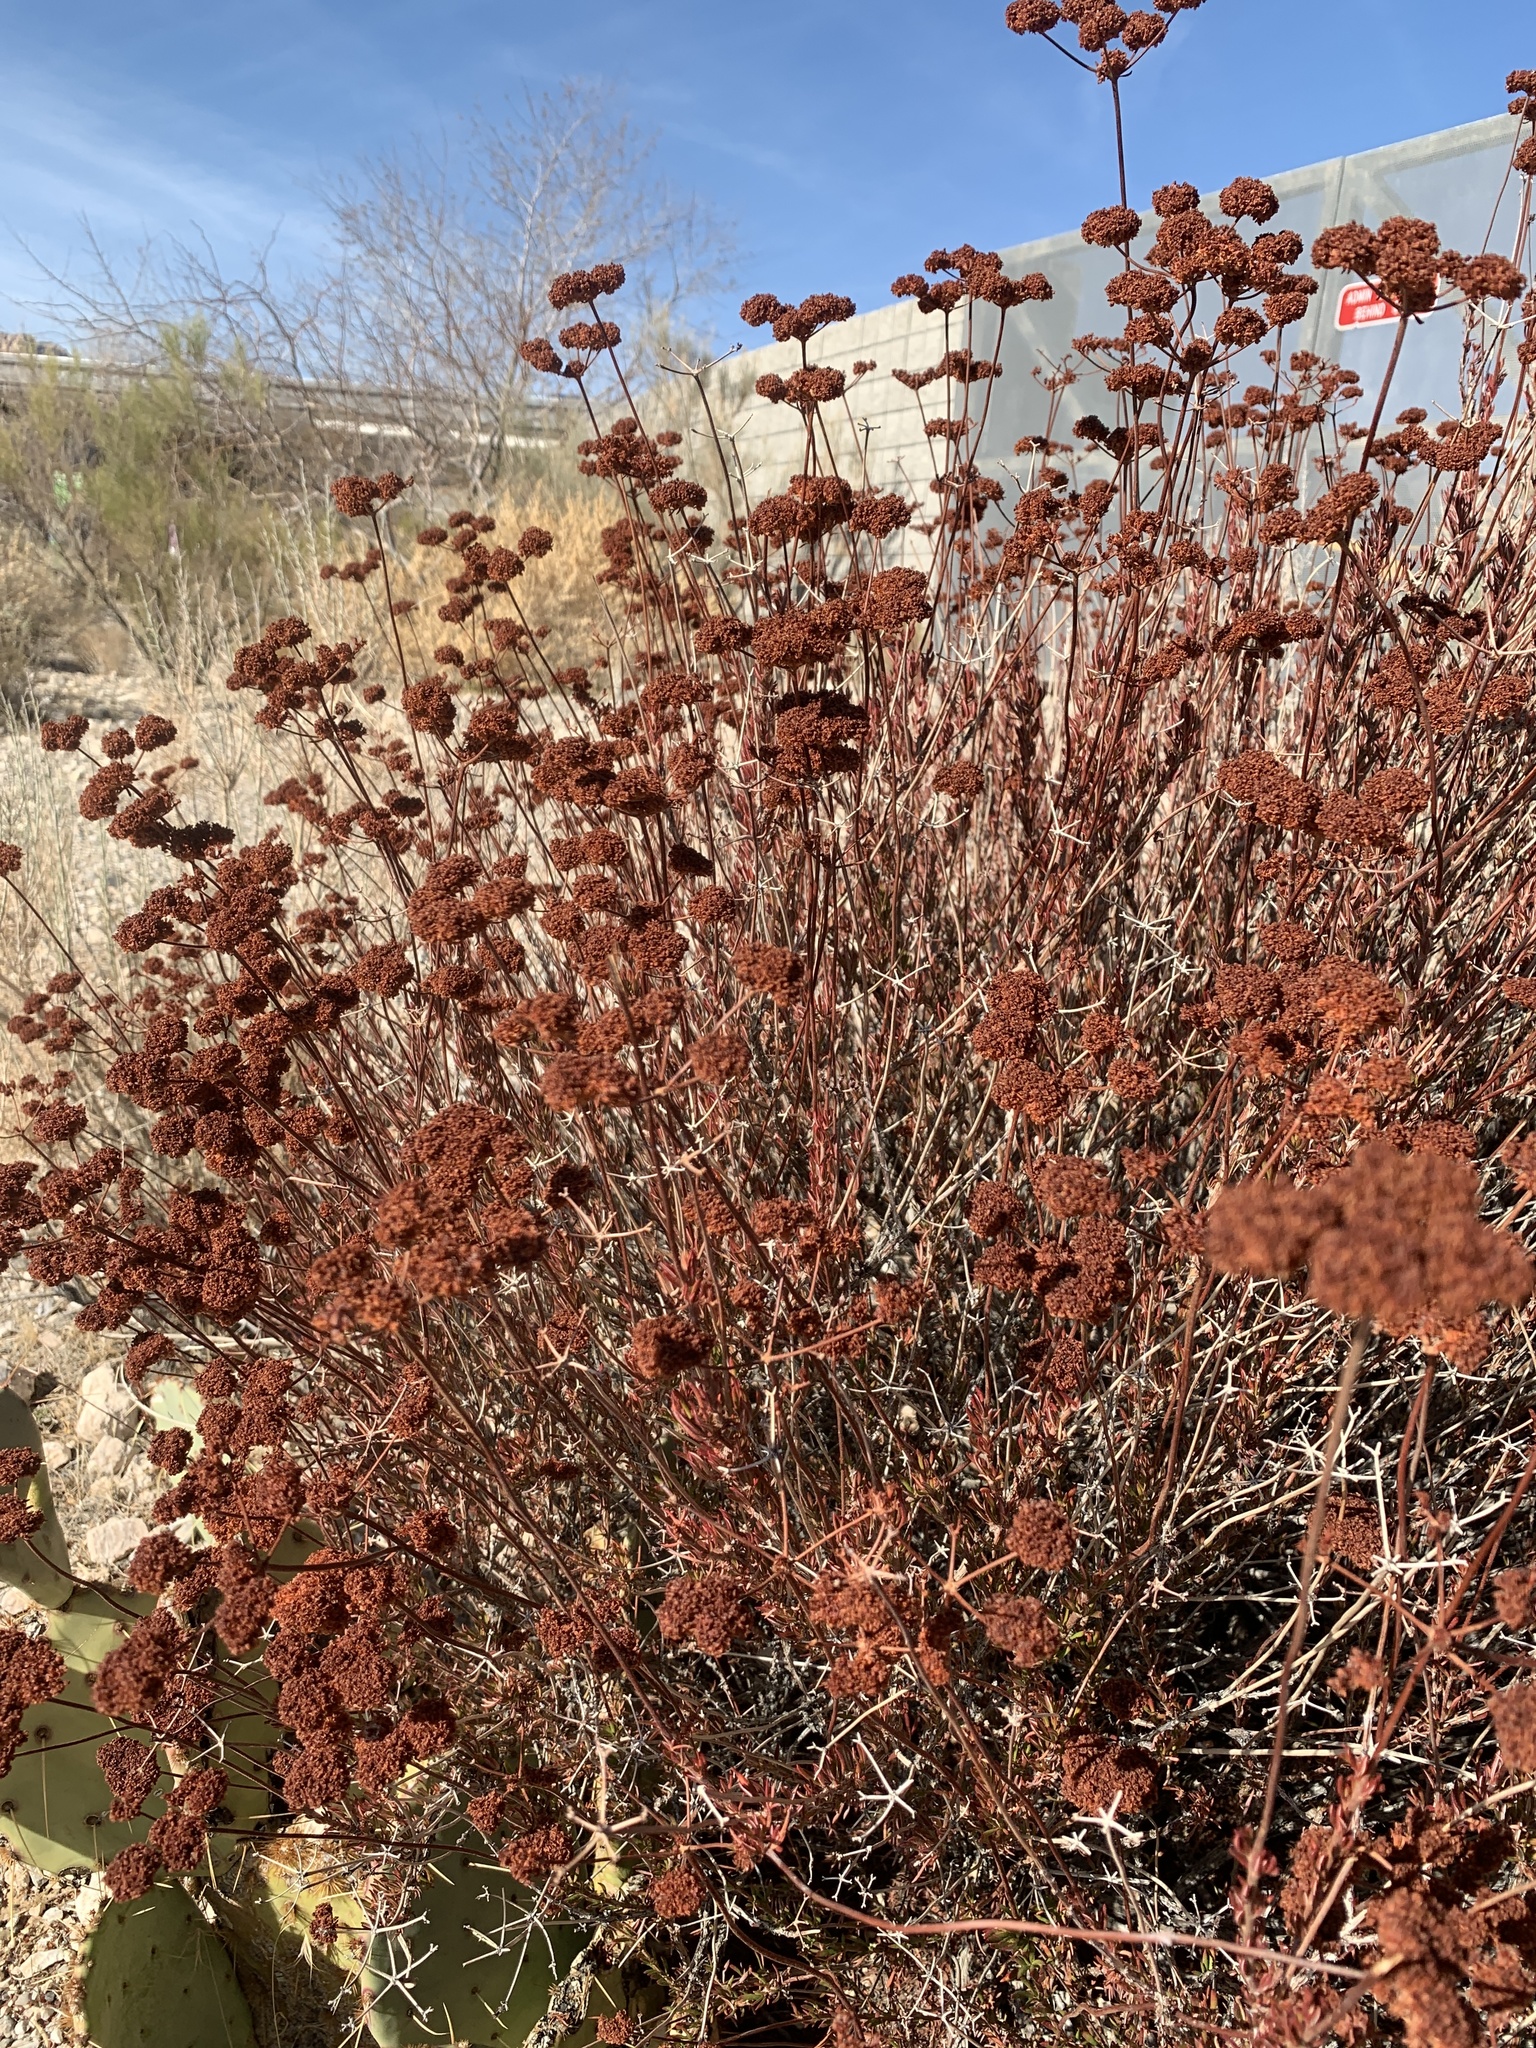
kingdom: Plantae
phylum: Tracheophyta
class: Magnoliopsida
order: Caryophyllales
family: Polygonaceae
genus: Eriogonum
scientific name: Eriogonum fasciculatum
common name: California wild buckwheat
